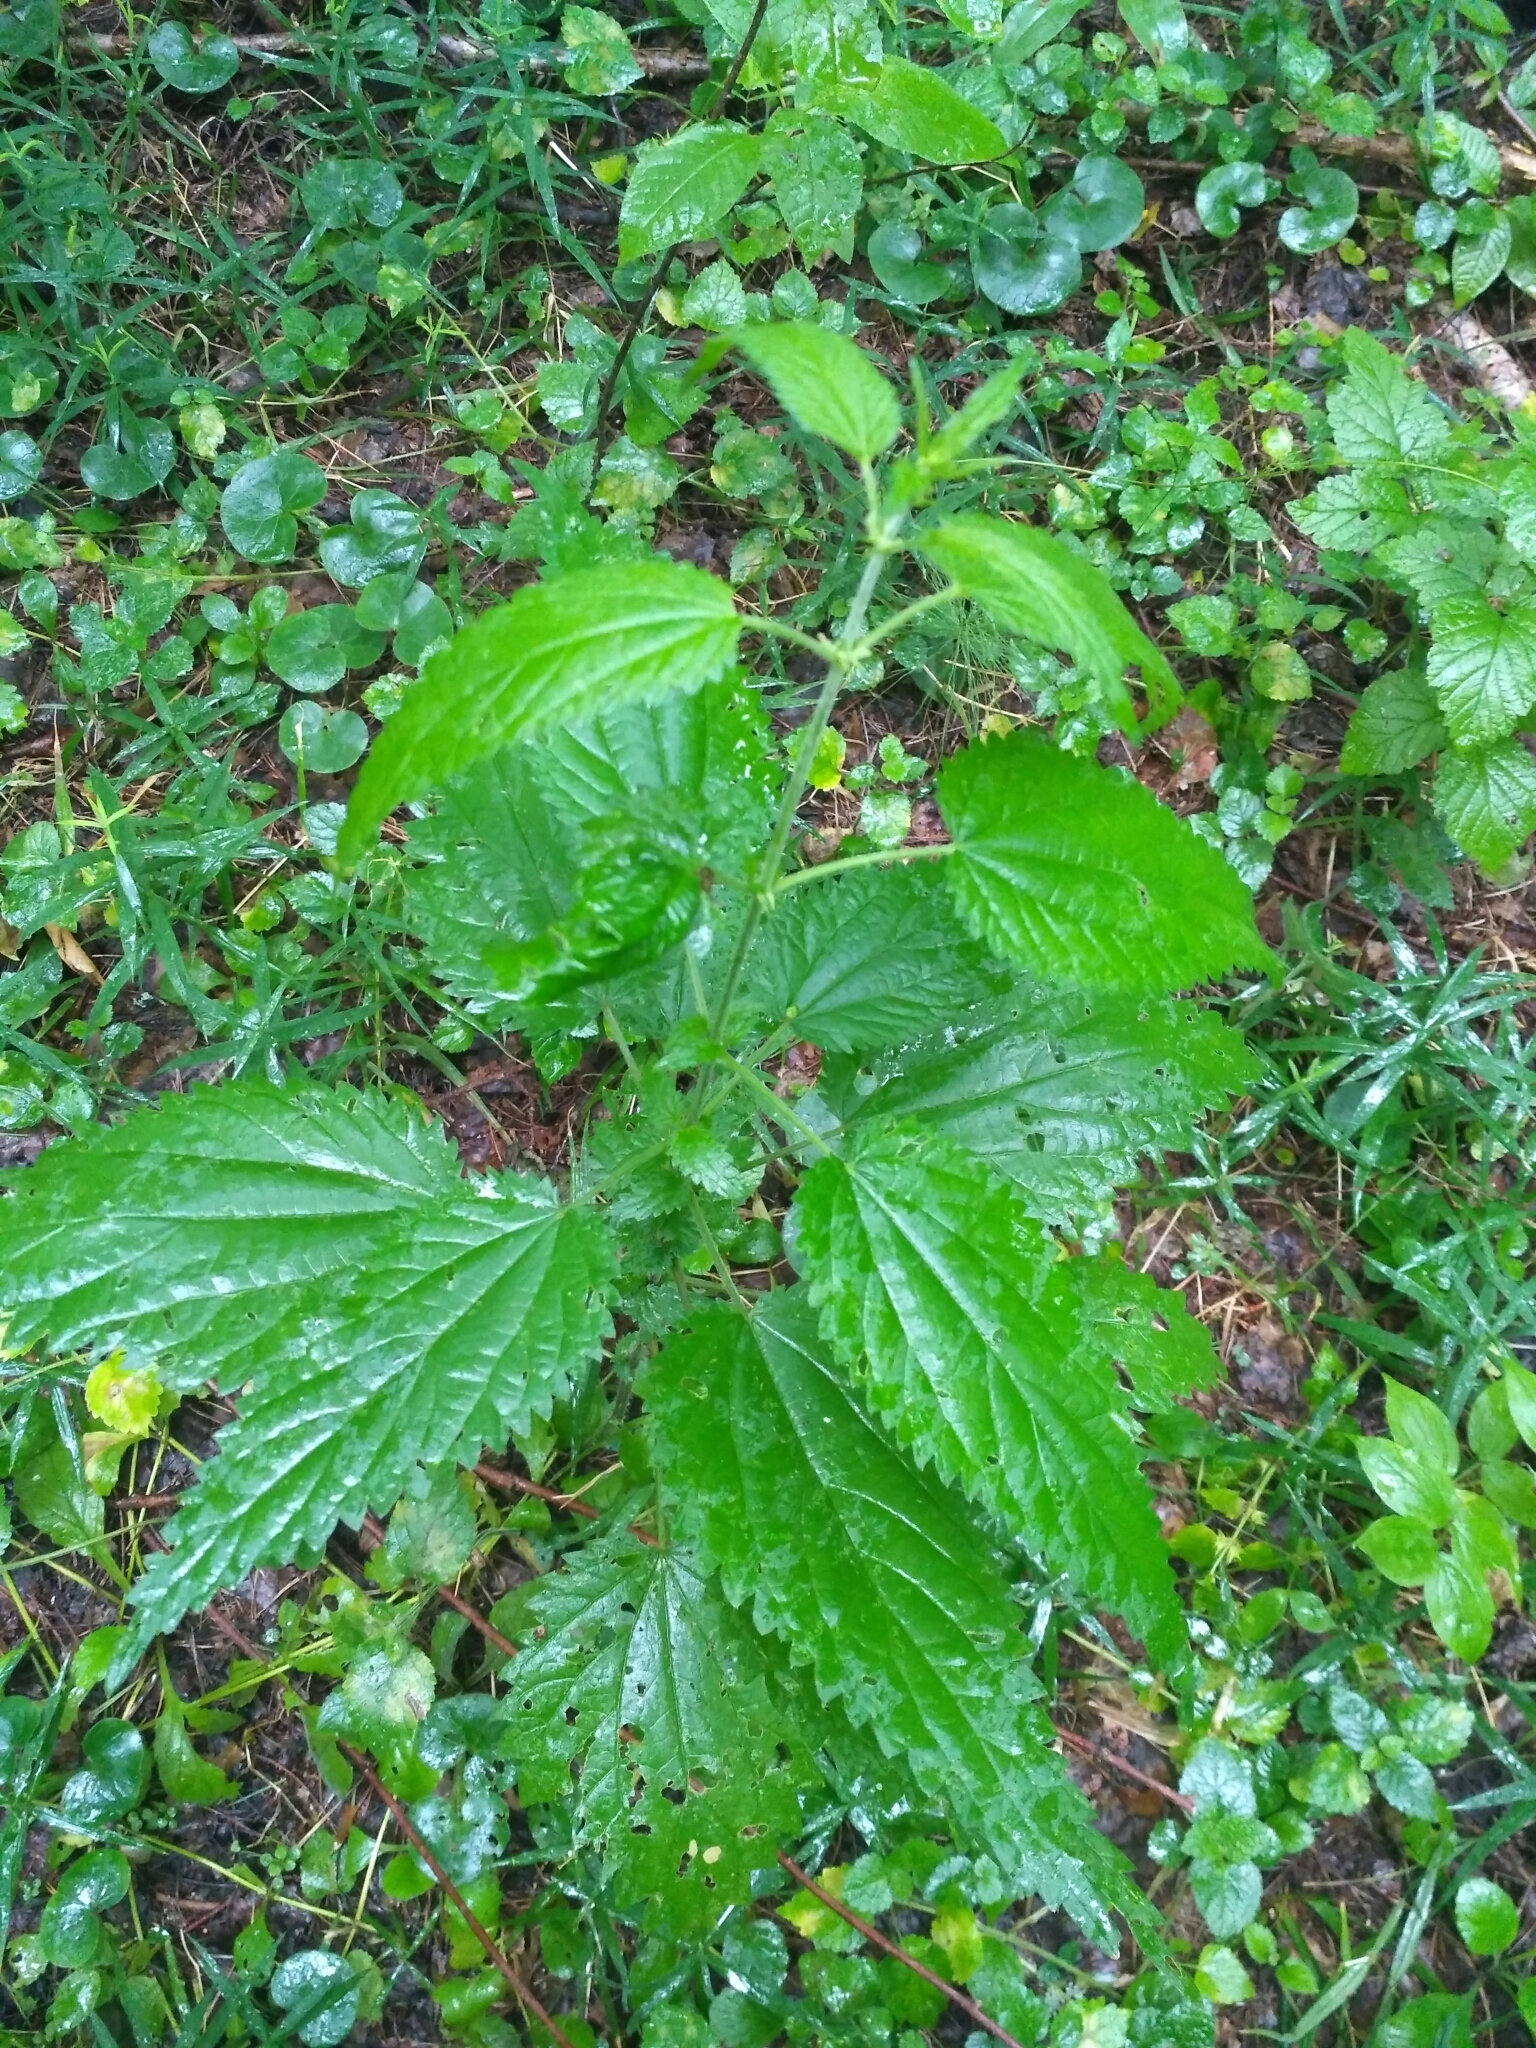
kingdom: Plantae
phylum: Tracheophyta
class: Magnoliopsida
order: Rosales
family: Urticaceae
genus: Urtica
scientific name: Urtica dioica
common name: Common nettle
